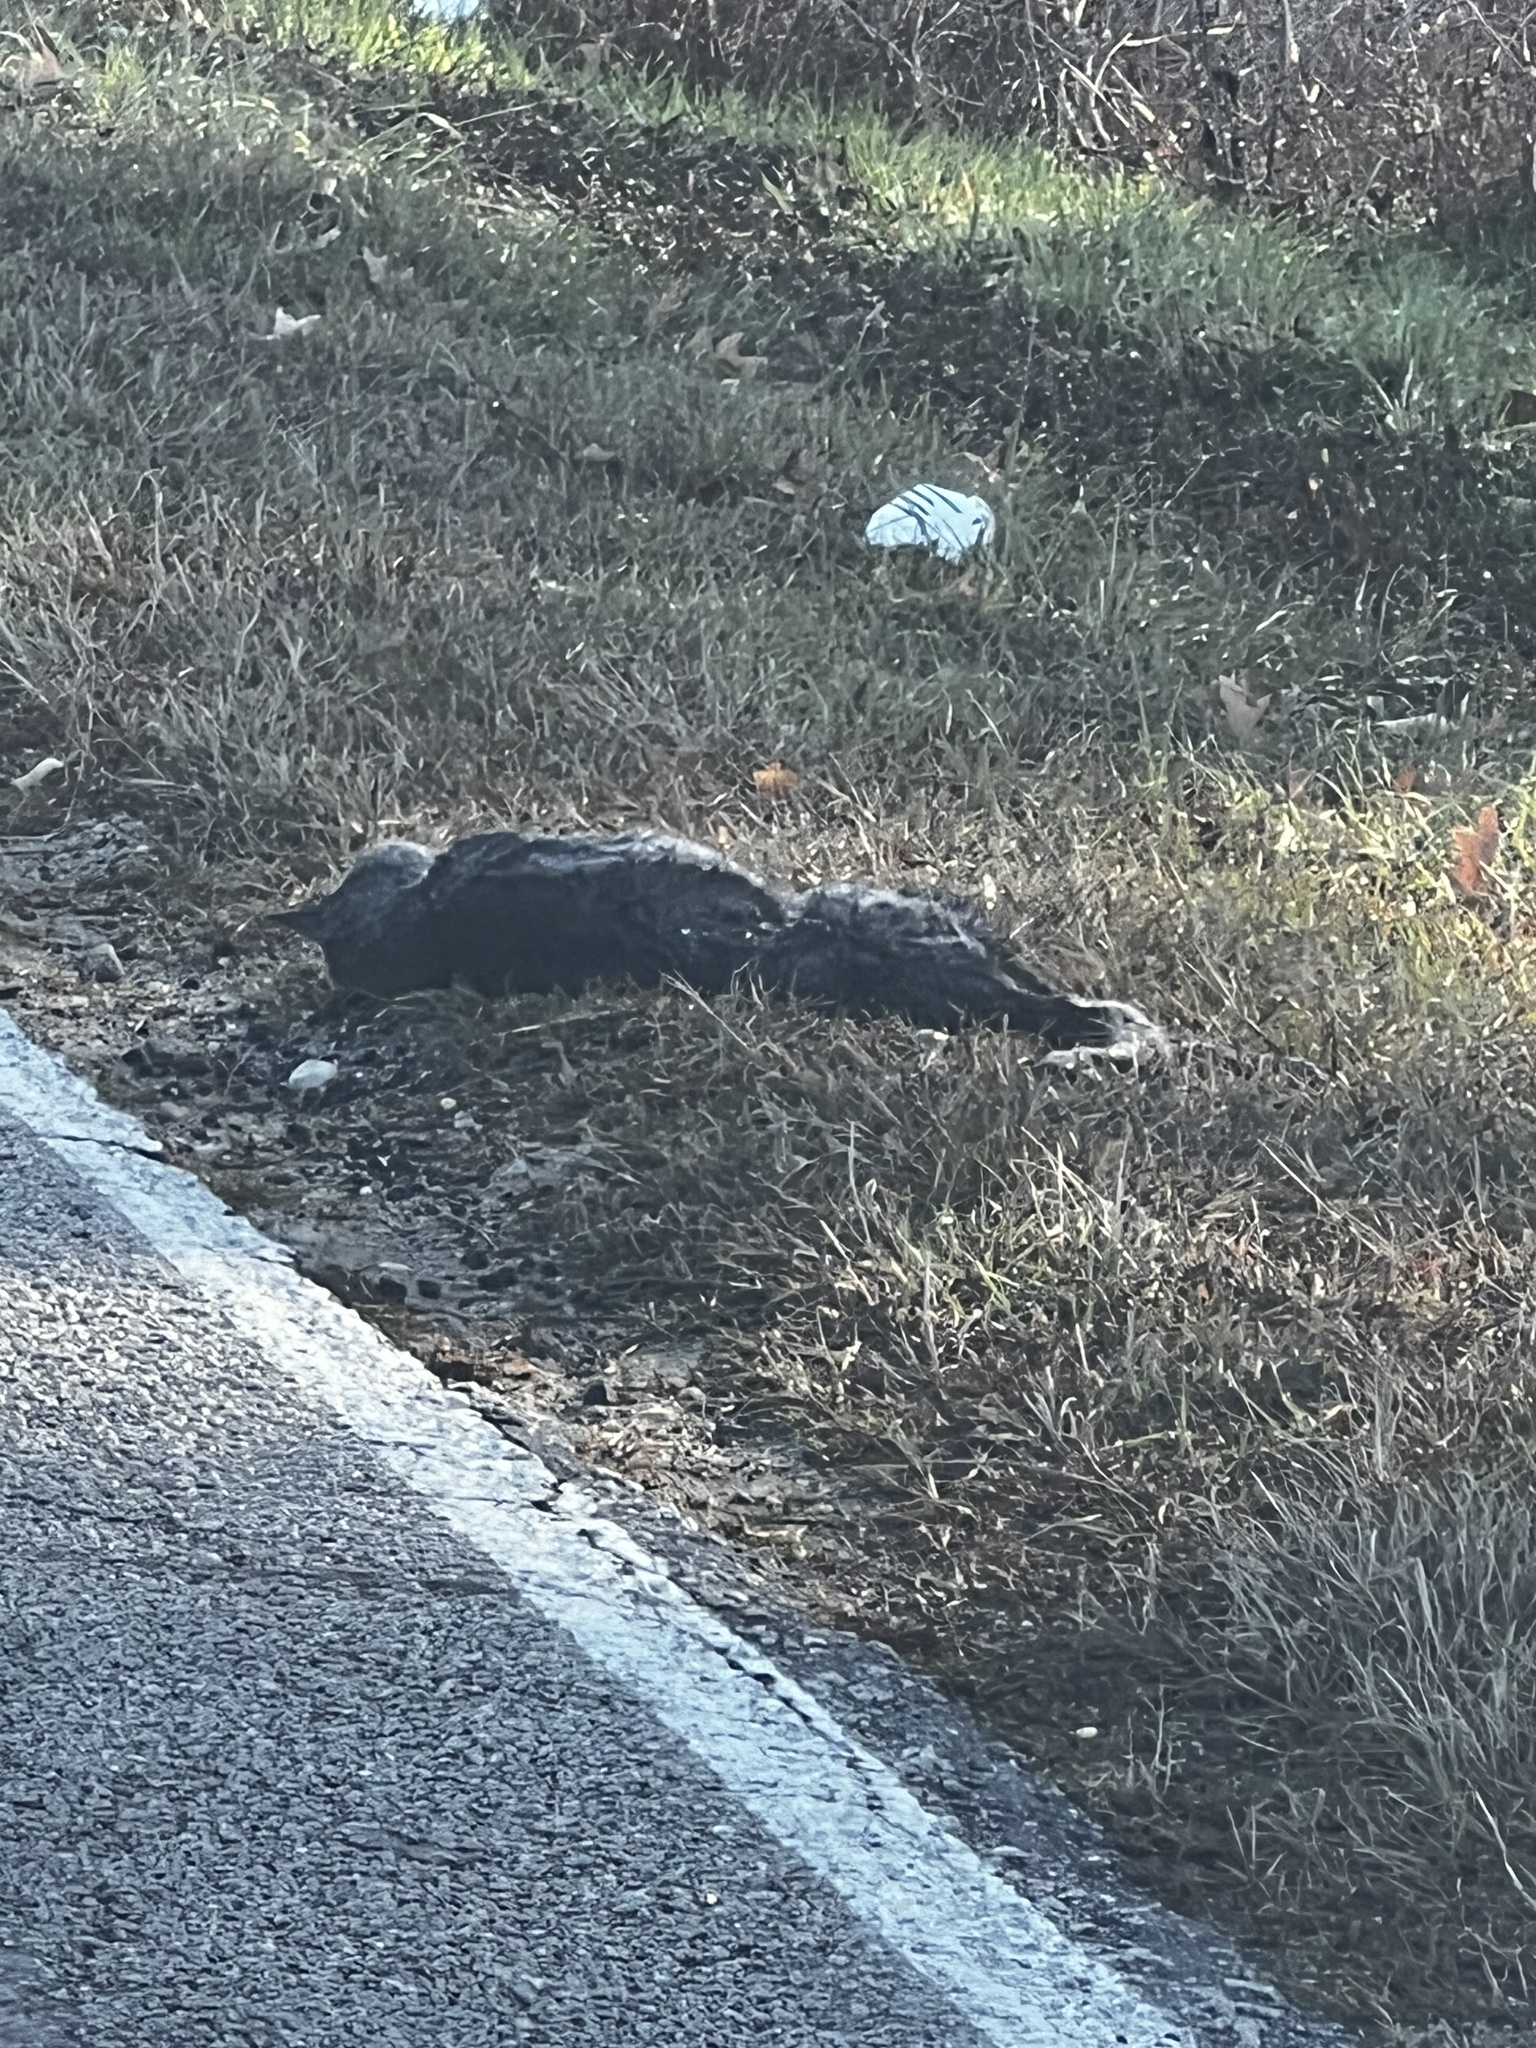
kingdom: Animalia
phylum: Chordata
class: Mammalia
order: Carnivora
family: Felidae
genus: Felis
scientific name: Felis catus
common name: Domestic cat
